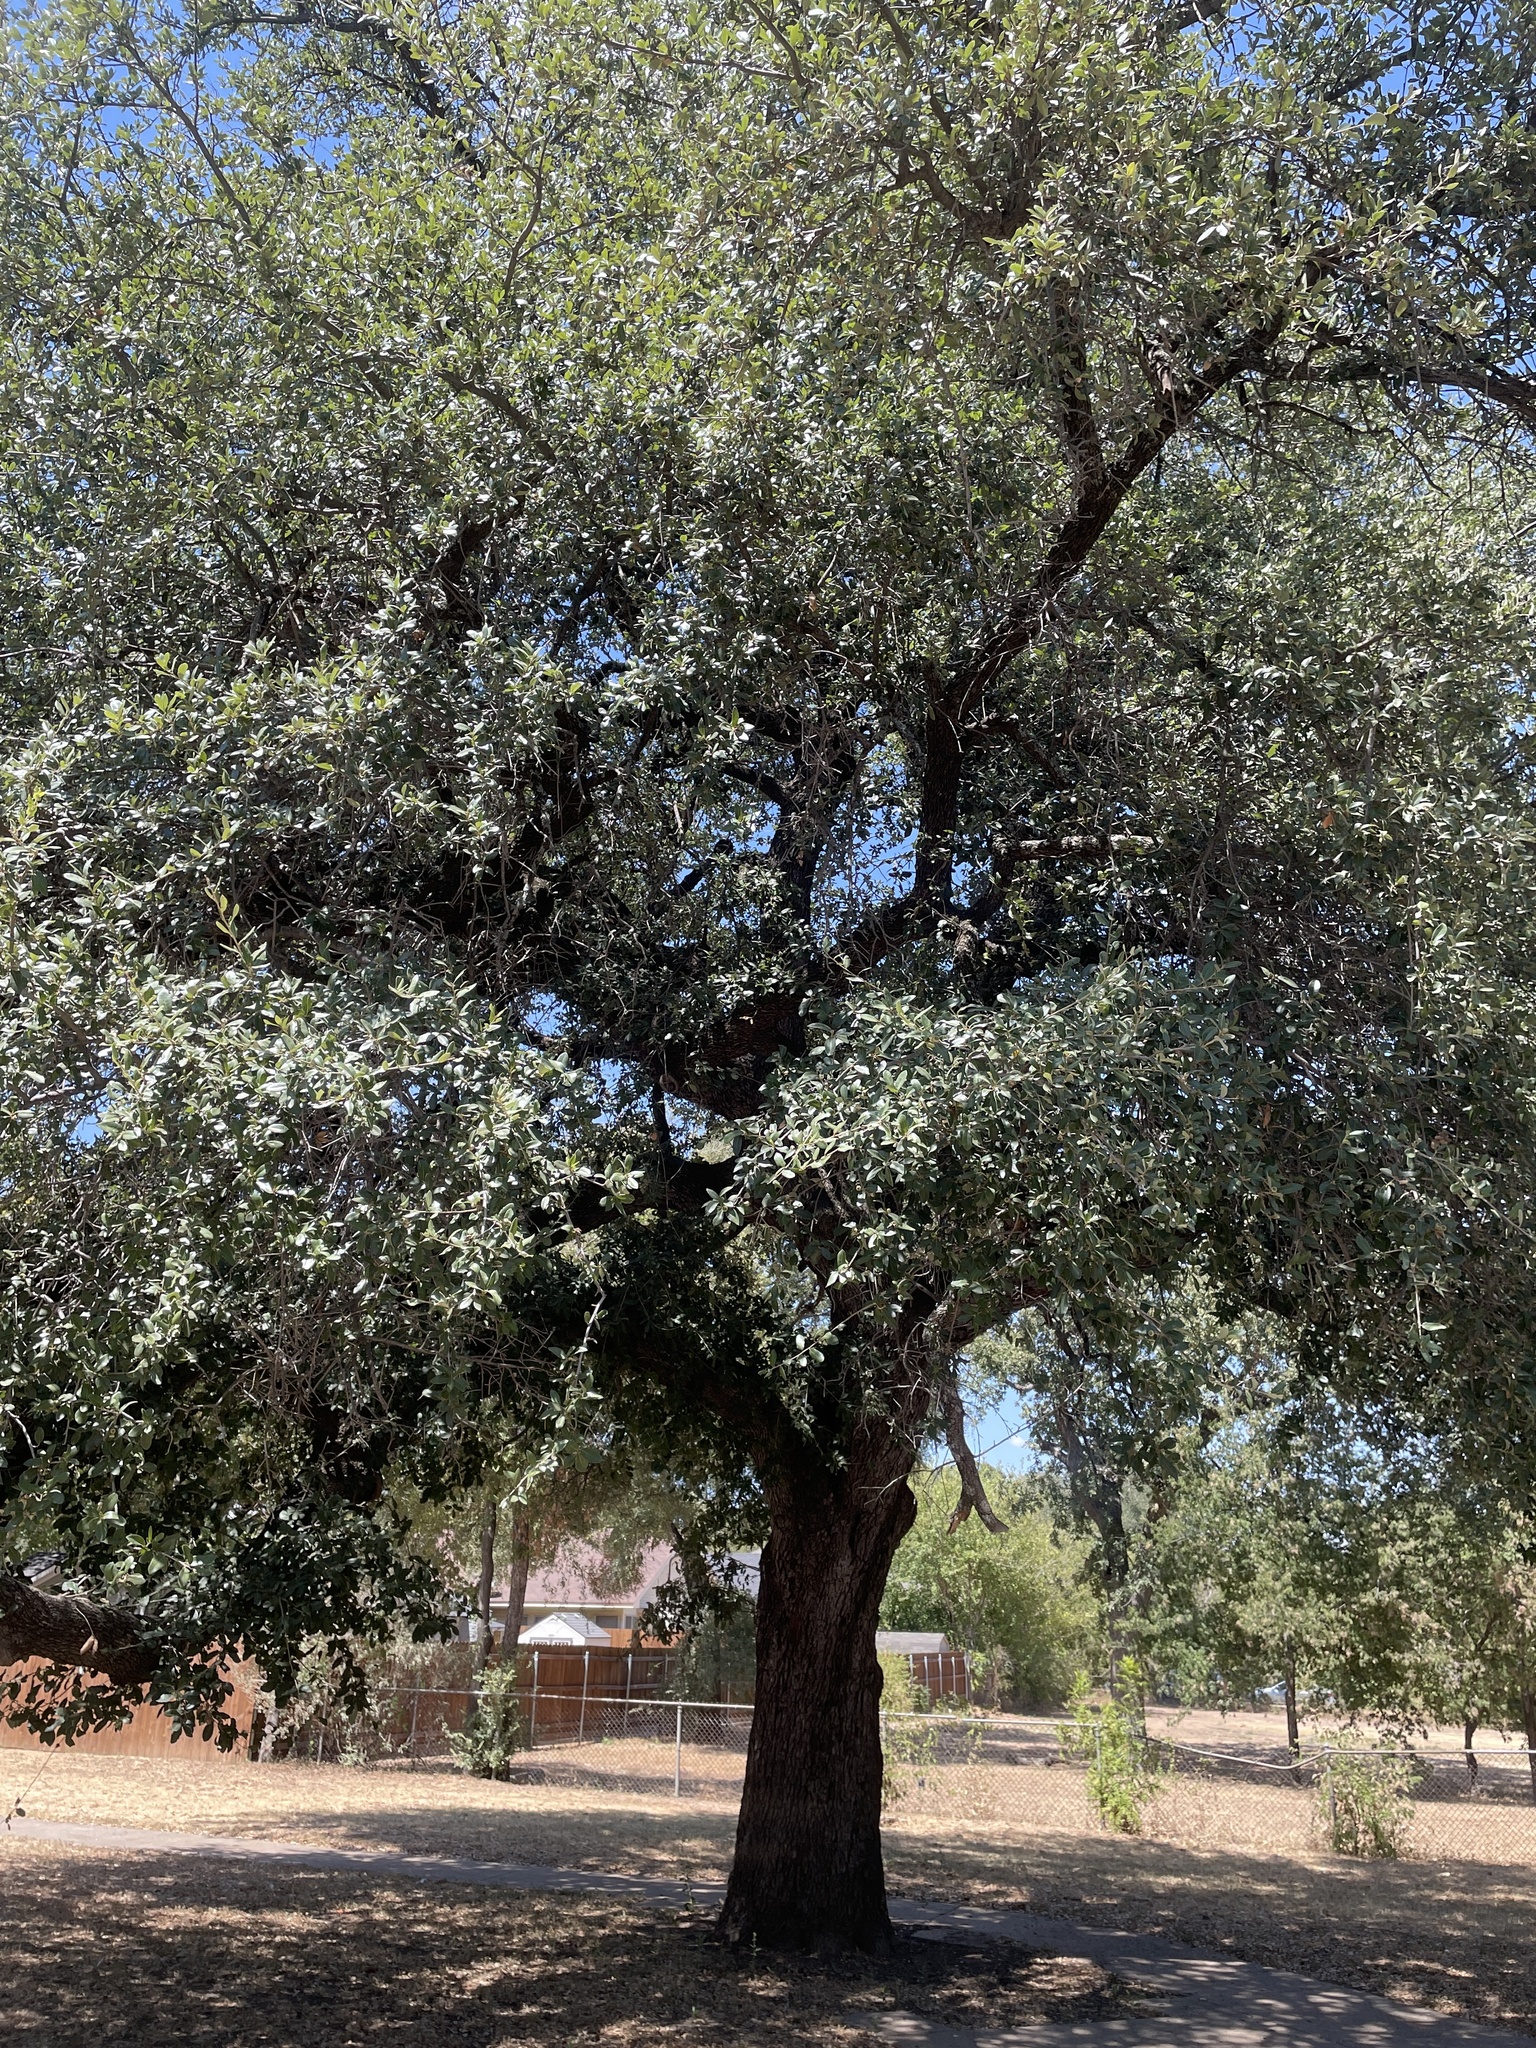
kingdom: Plantae
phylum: Tracheophyta
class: Magnoliopsida
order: Fagales
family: Fagaceae
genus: Quercus
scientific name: Quercus fusiformis
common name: Texas live oak
